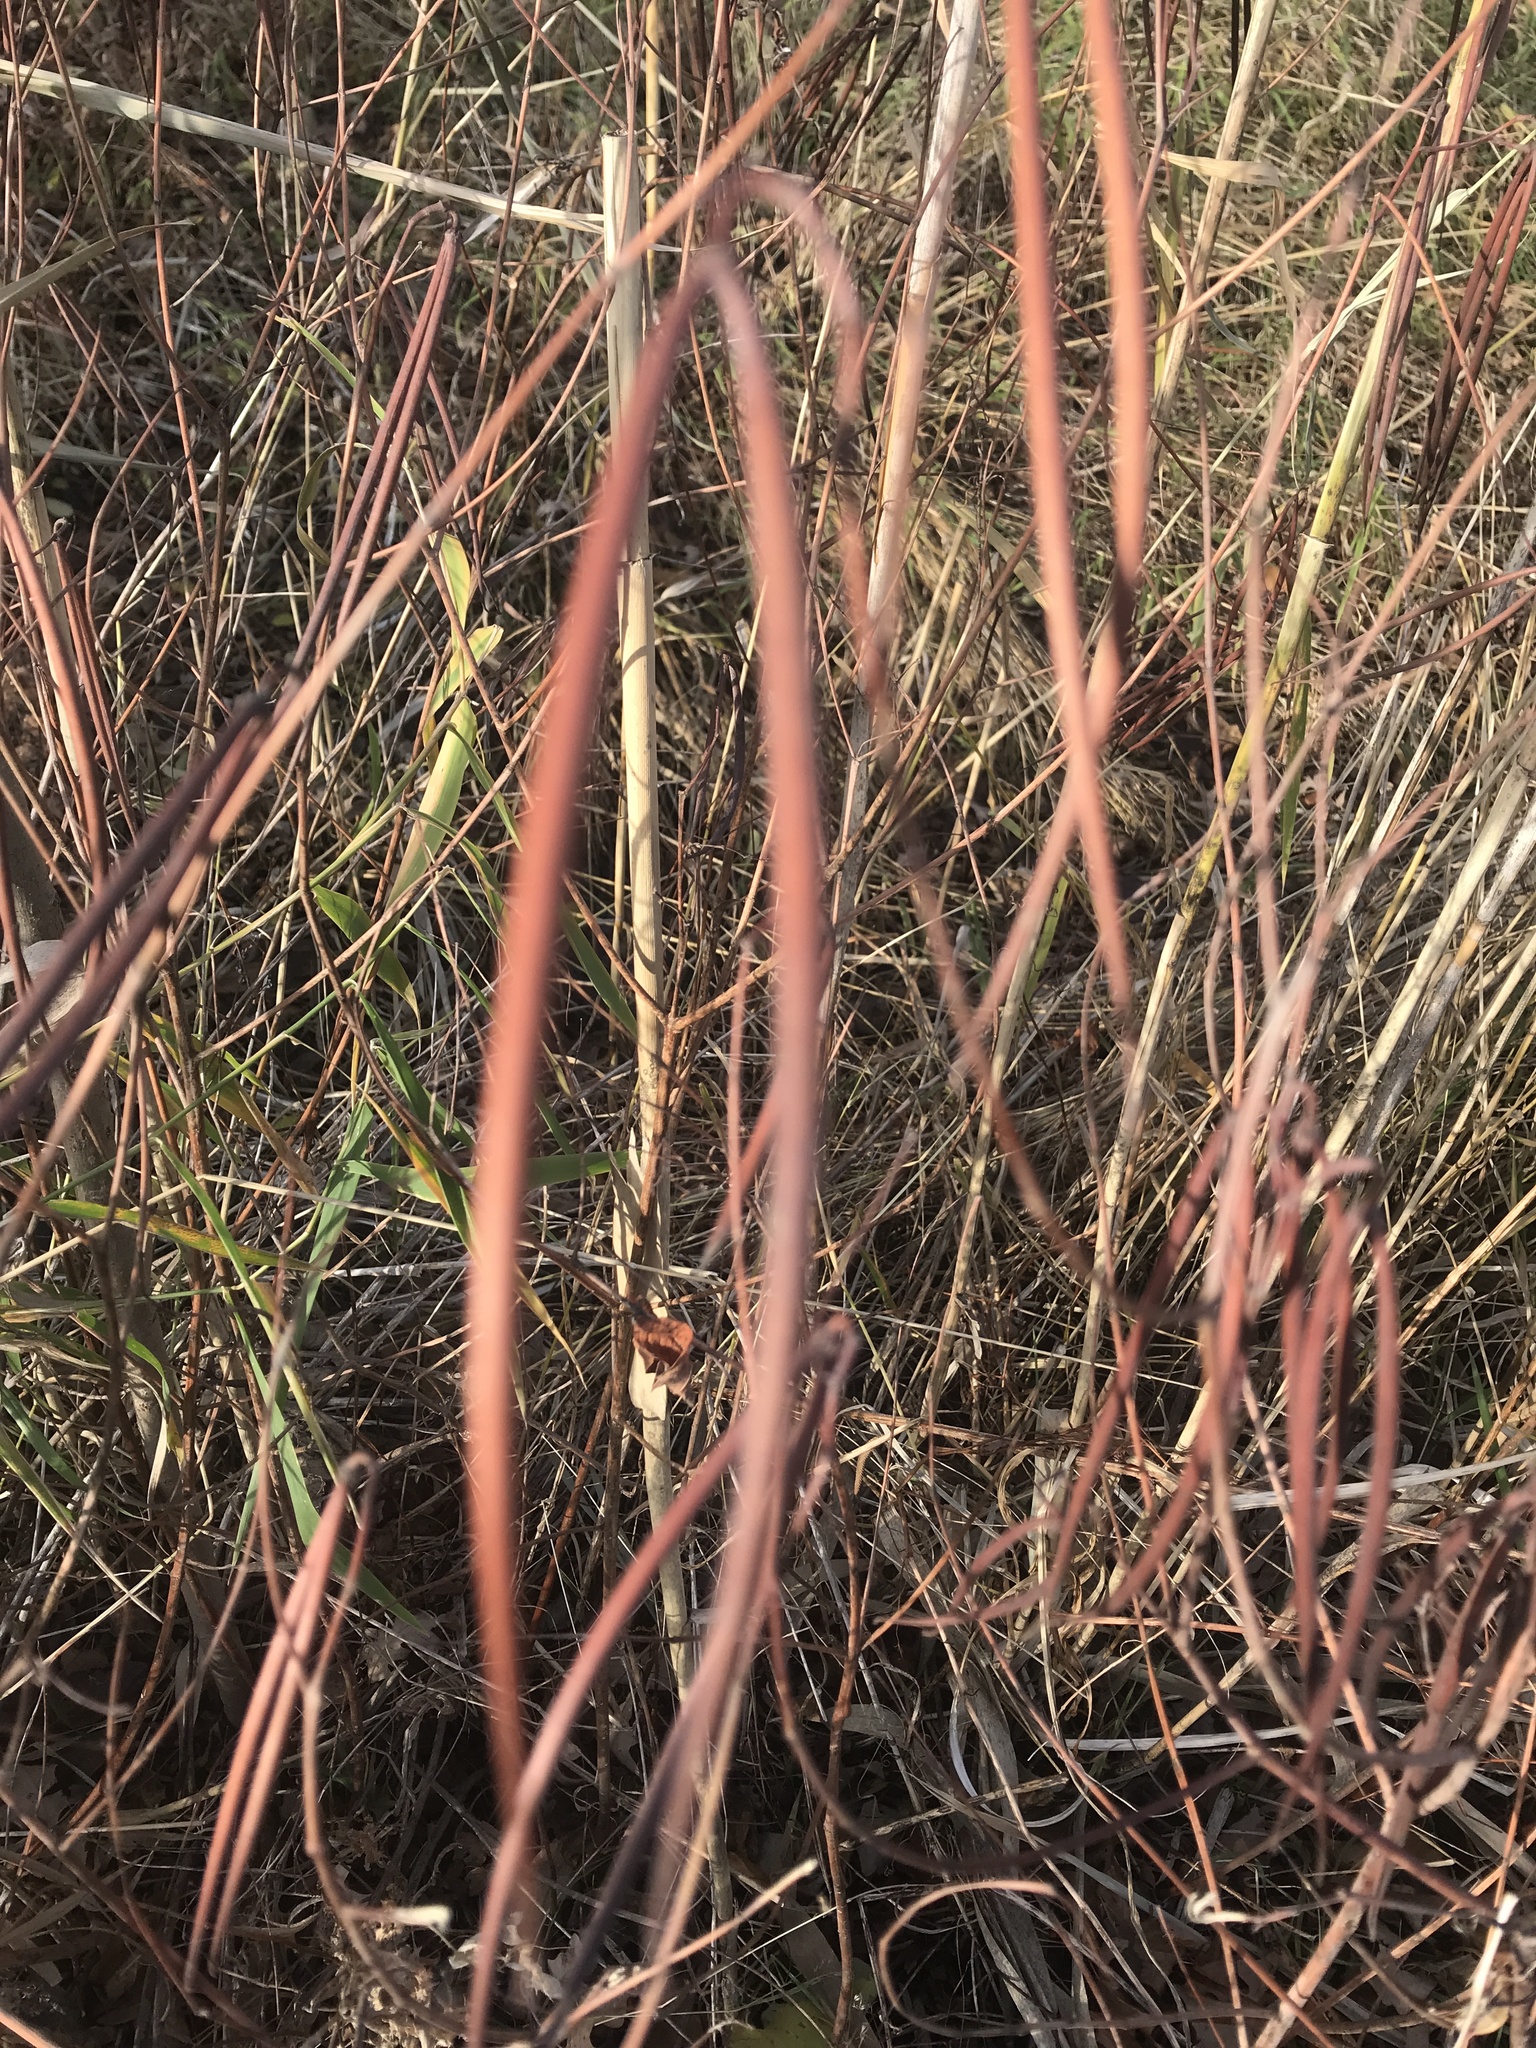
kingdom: Plantae
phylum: Tracheophyta
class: Magnoliopsida
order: Gentianales
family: Apocynaceae
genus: Apocynum
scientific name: Apocynum cannabinum
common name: Hemp dogbane
